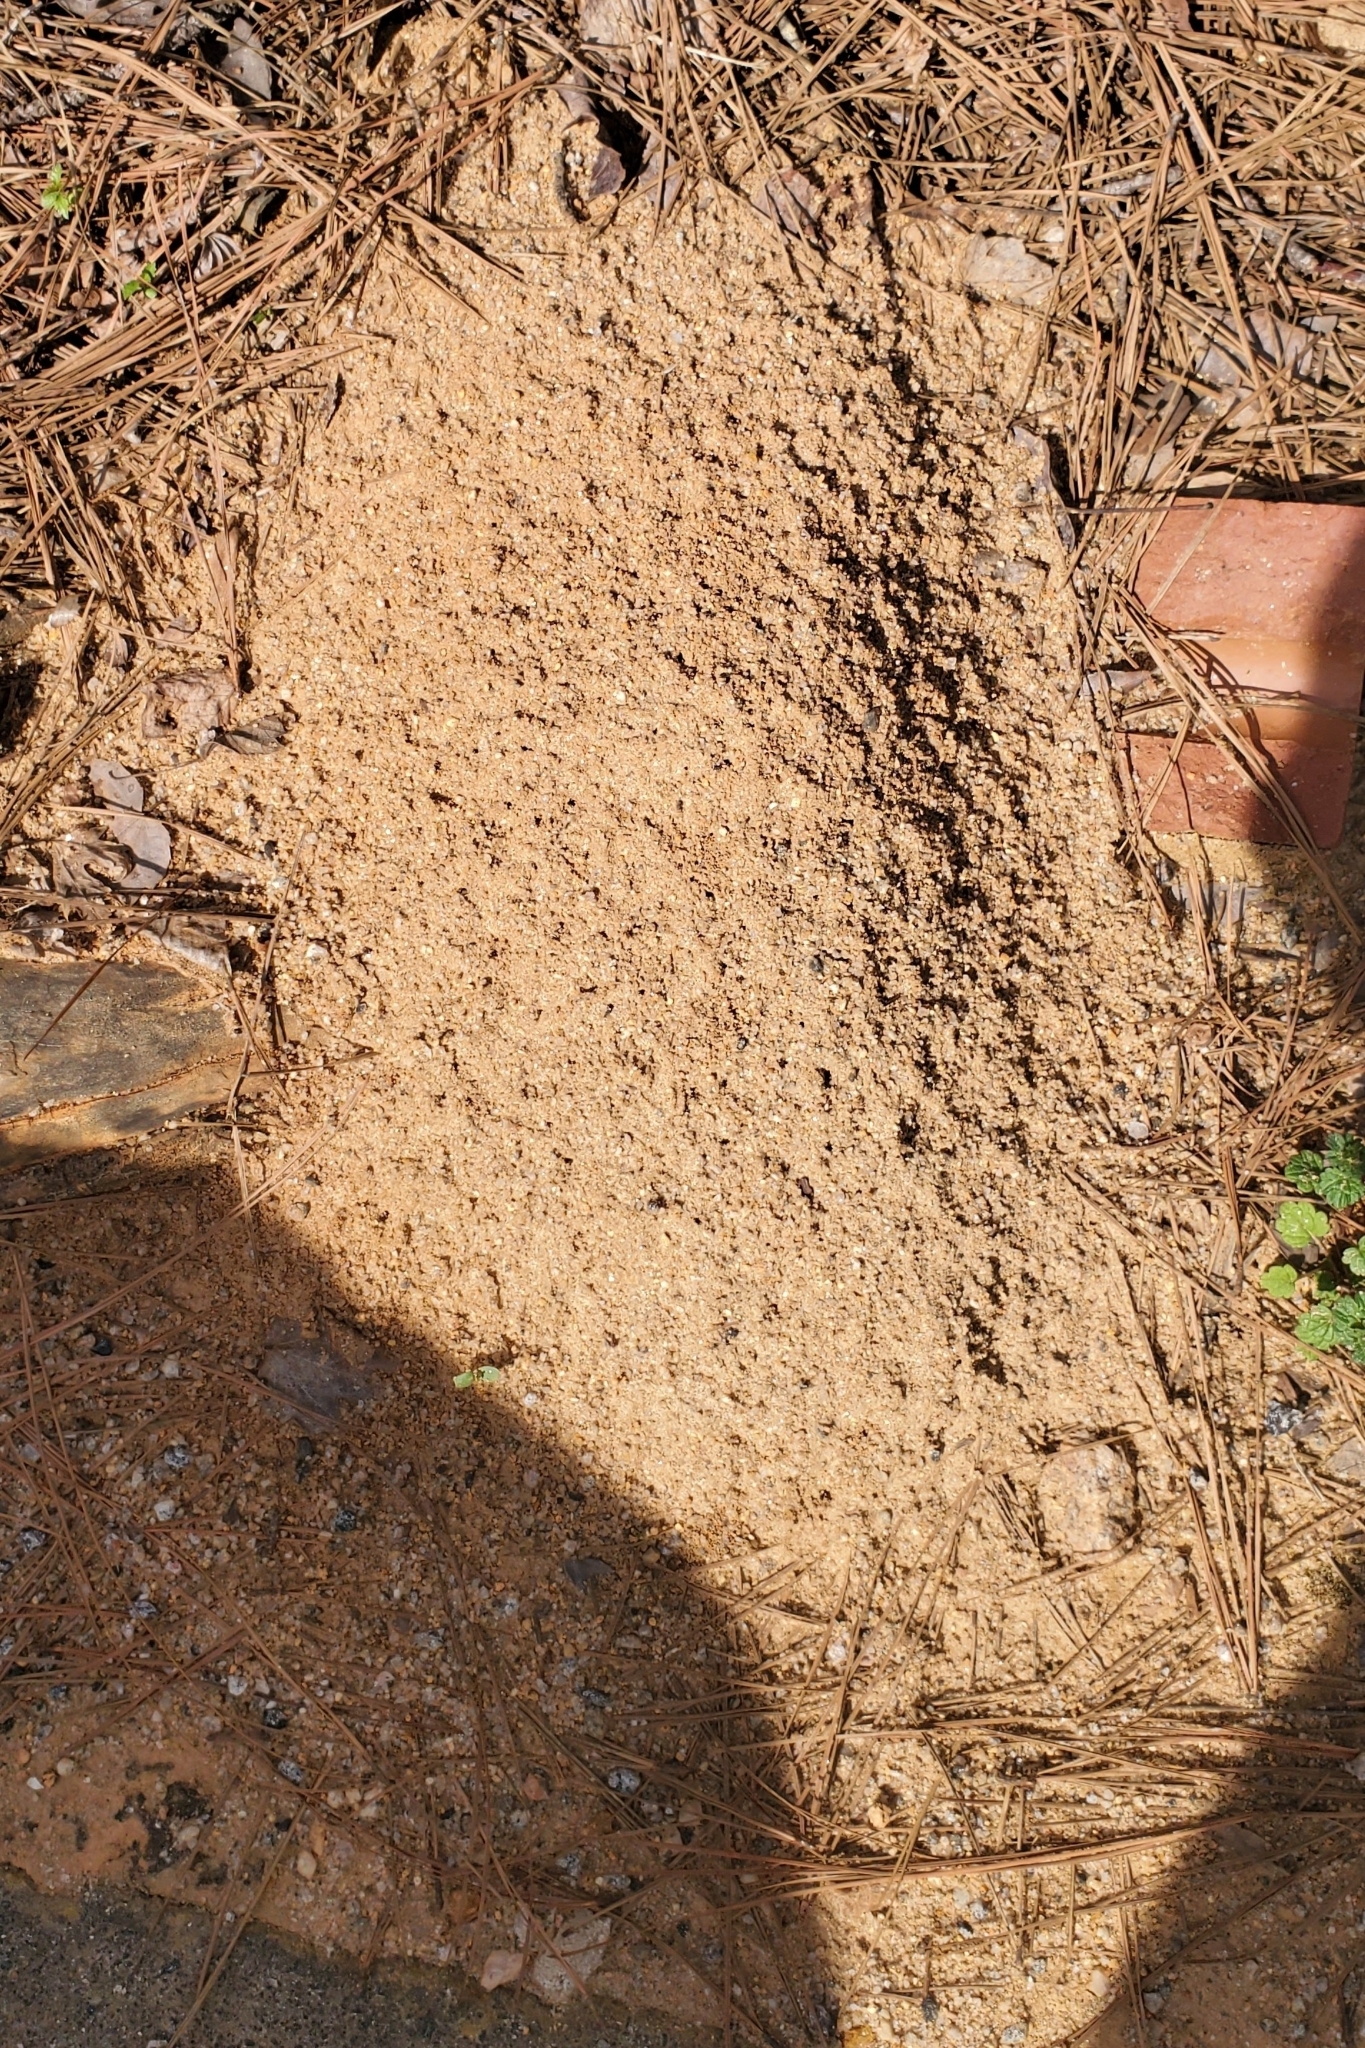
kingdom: Animalia
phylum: Arthropoda
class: Insecta
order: Hymenoptera
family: Formicidae
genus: Solenopsis
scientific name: Solenopsis invicta
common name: Red imported fire ant
